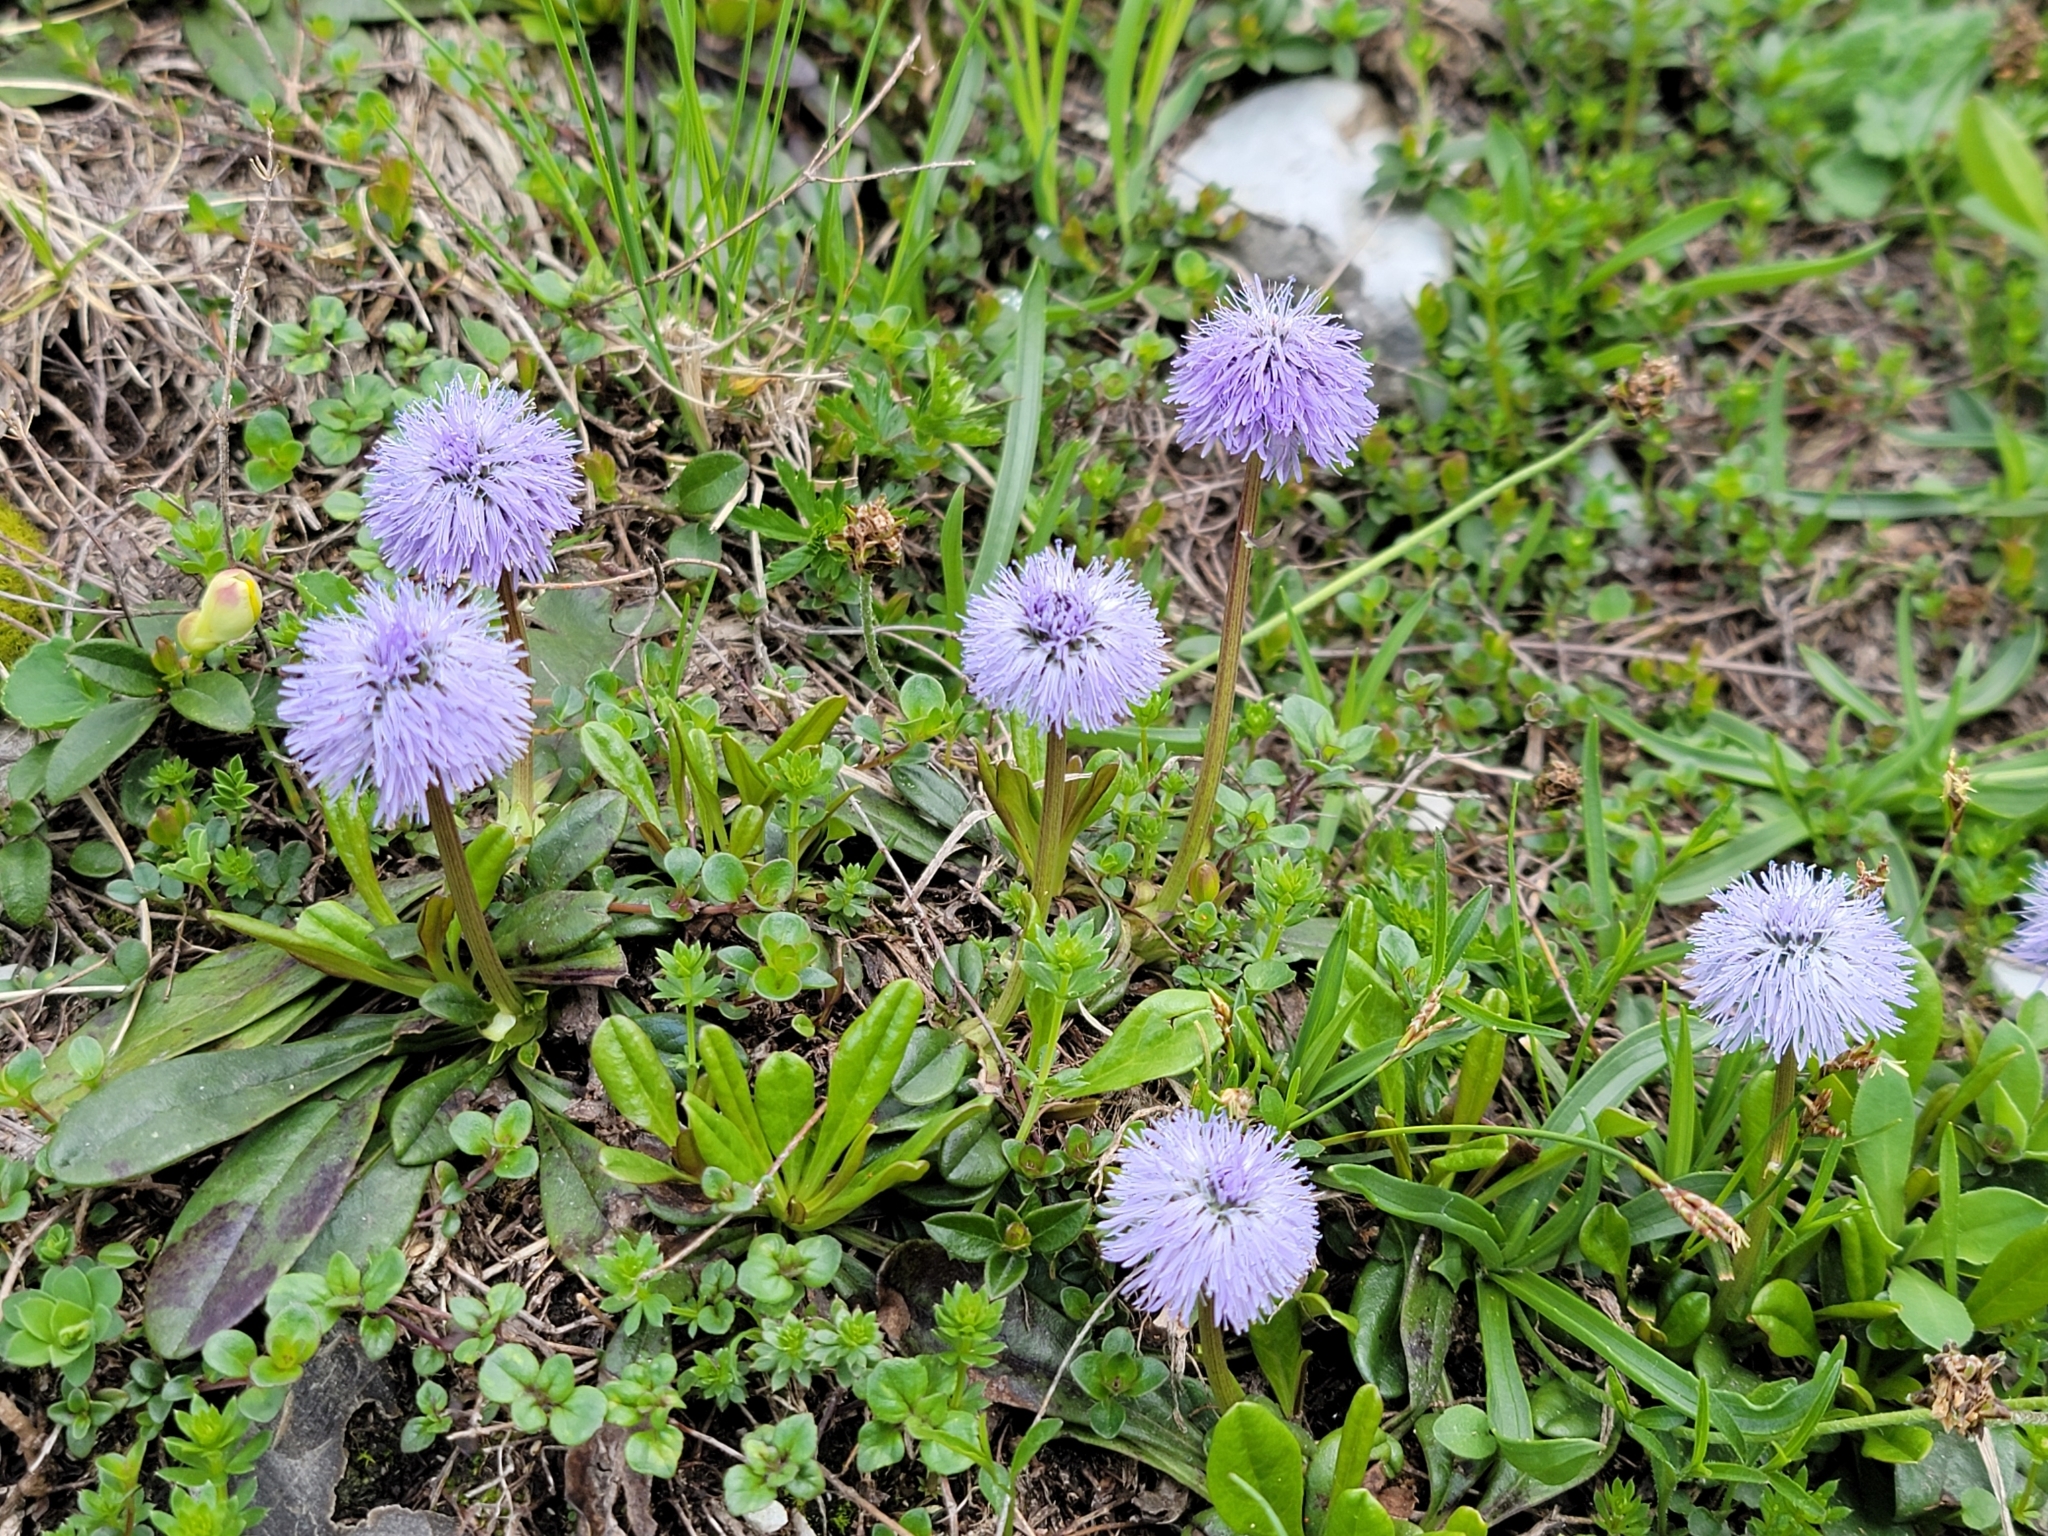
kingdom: Plantae
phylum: Tracheophyta
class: Magnoliopsida
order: Lamiales
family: Plantaginaceae
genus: Globularia
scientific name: Globularia nudicaulis
